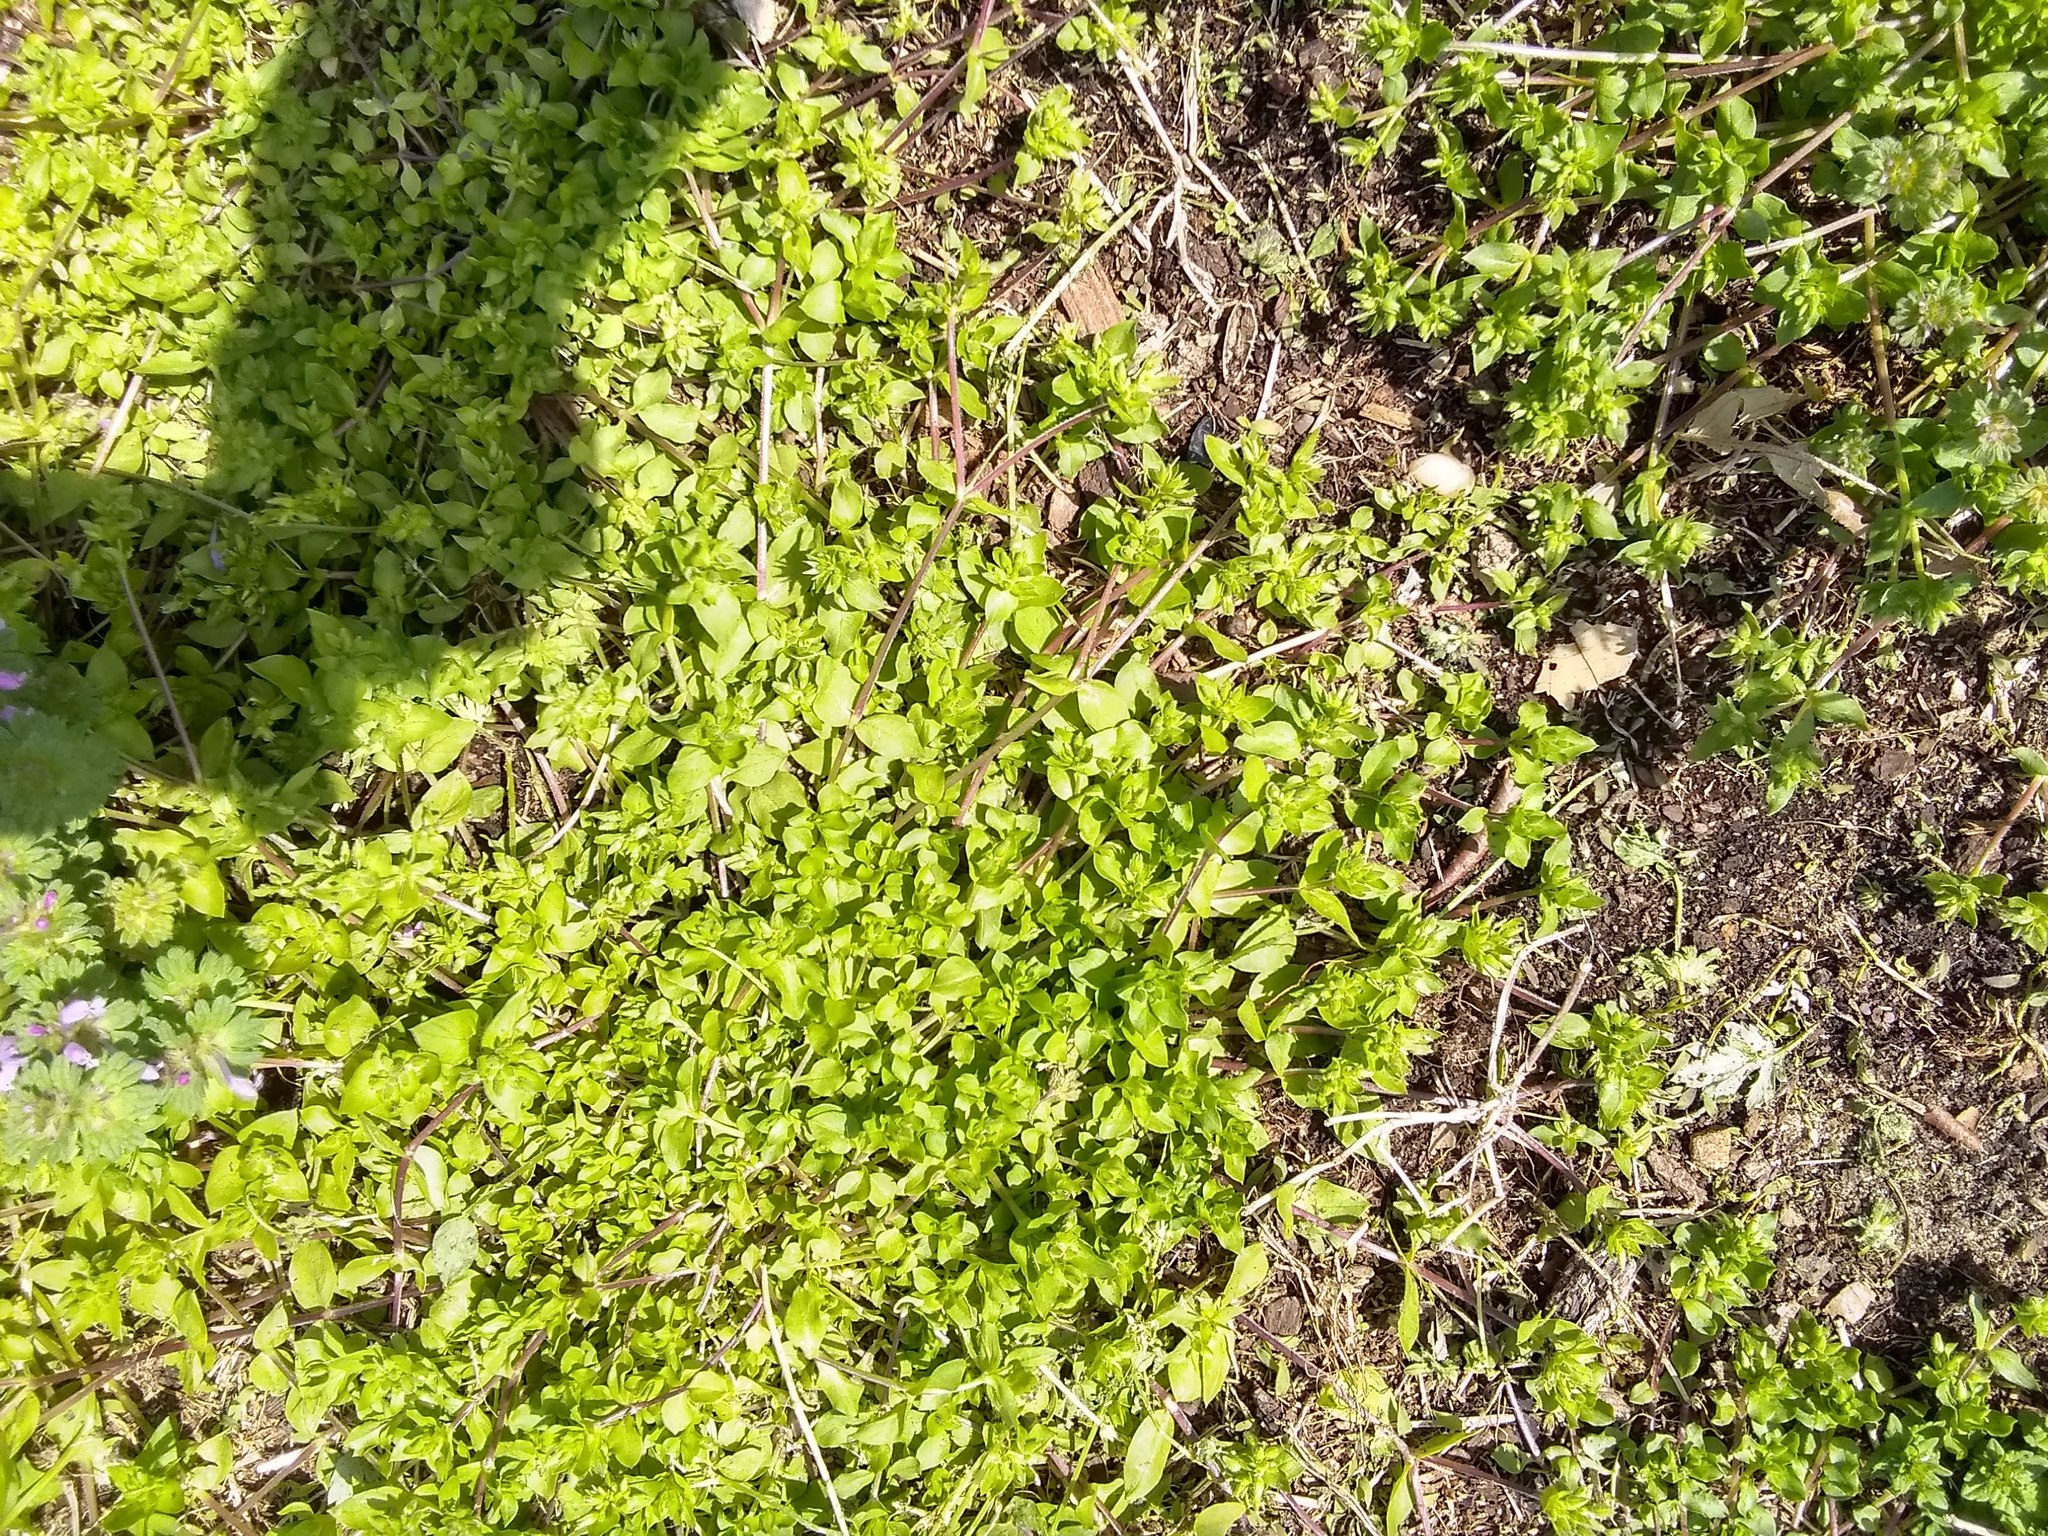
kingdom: Plantae
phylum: Tracheophyta
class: Magnoliopsida
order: Caryophyllales
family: Caryophyllaceae
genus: Stellaria
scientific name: Stellaria apetala
